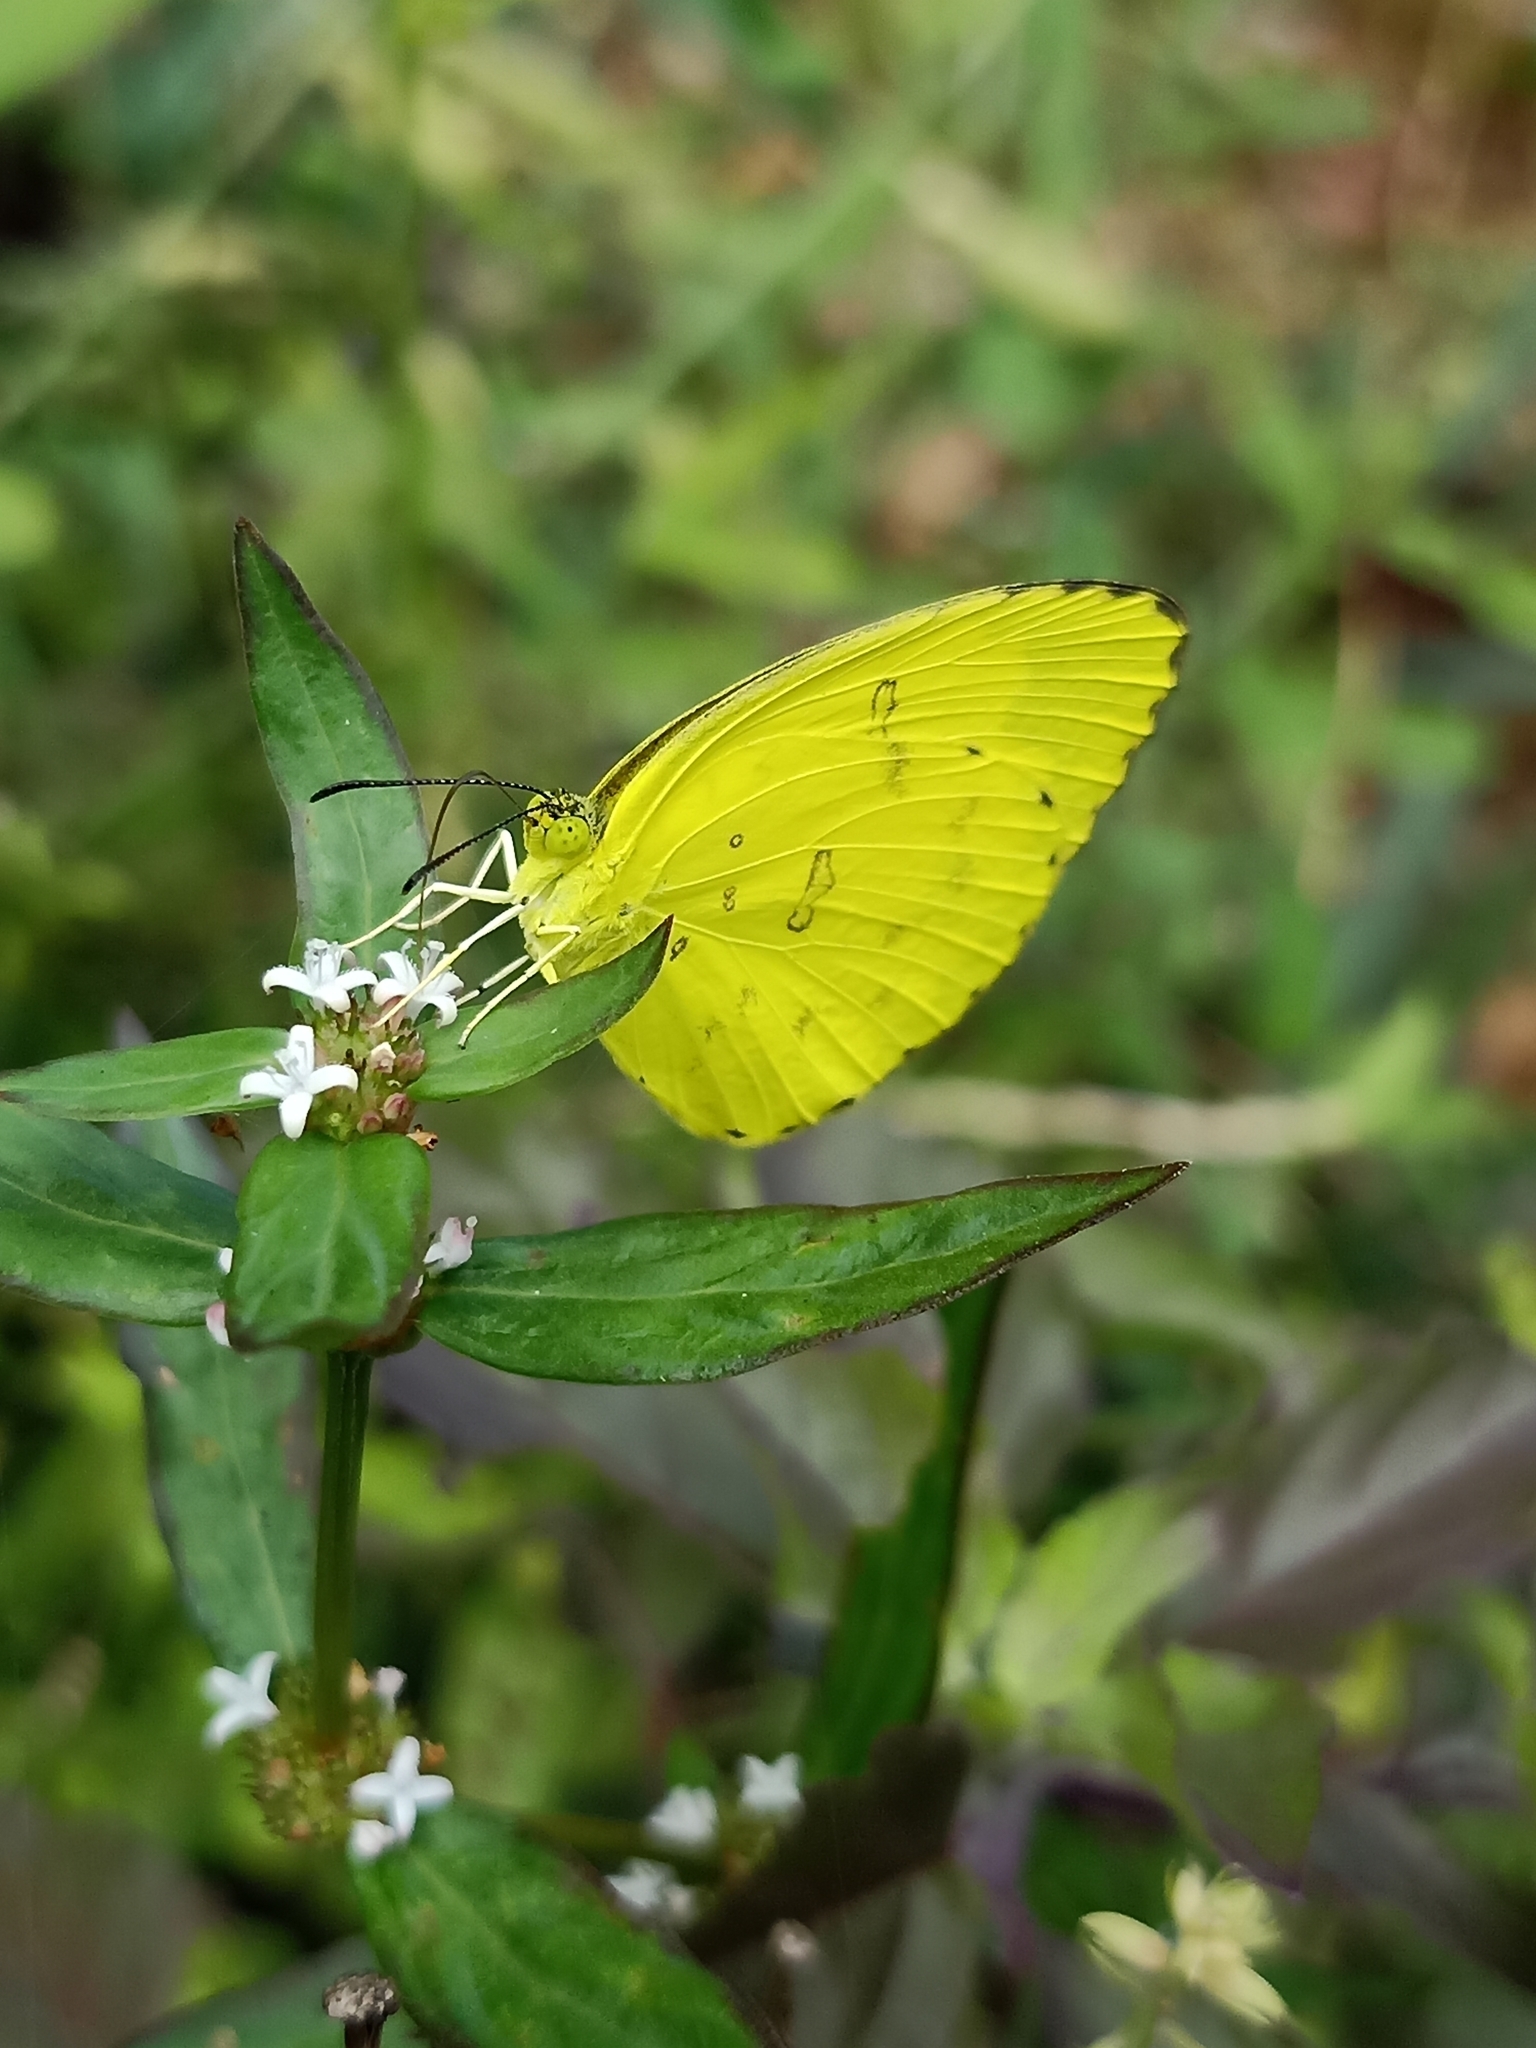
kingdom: Animalia
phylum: Arthropoda
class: Insecta
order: Lepidoptera
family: Pieridae
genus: Eurema
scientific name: Eurema blanda
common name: Three-spot grass yellow
